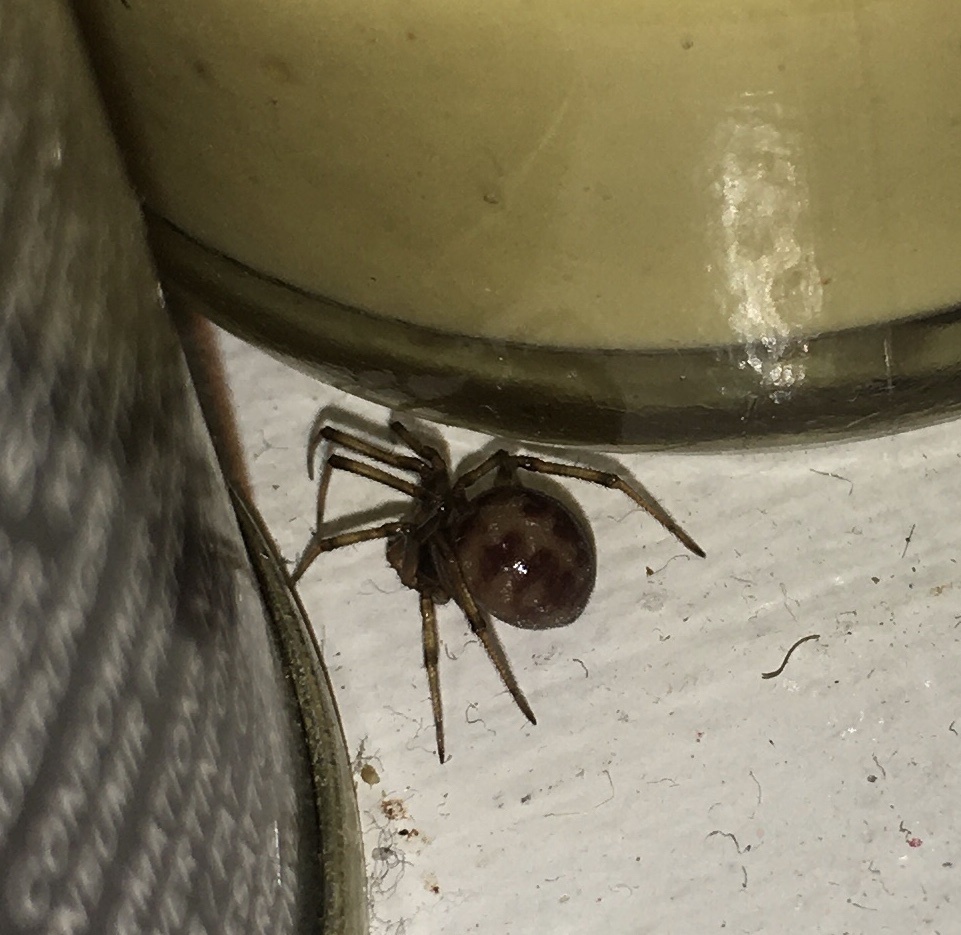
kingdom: Animalia
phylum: Arthropoda
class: Arachnida
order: Araneae
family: Theridiidae
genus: Steatoda
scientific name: Steatoda triangulosa
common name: Triangulate bud spider
